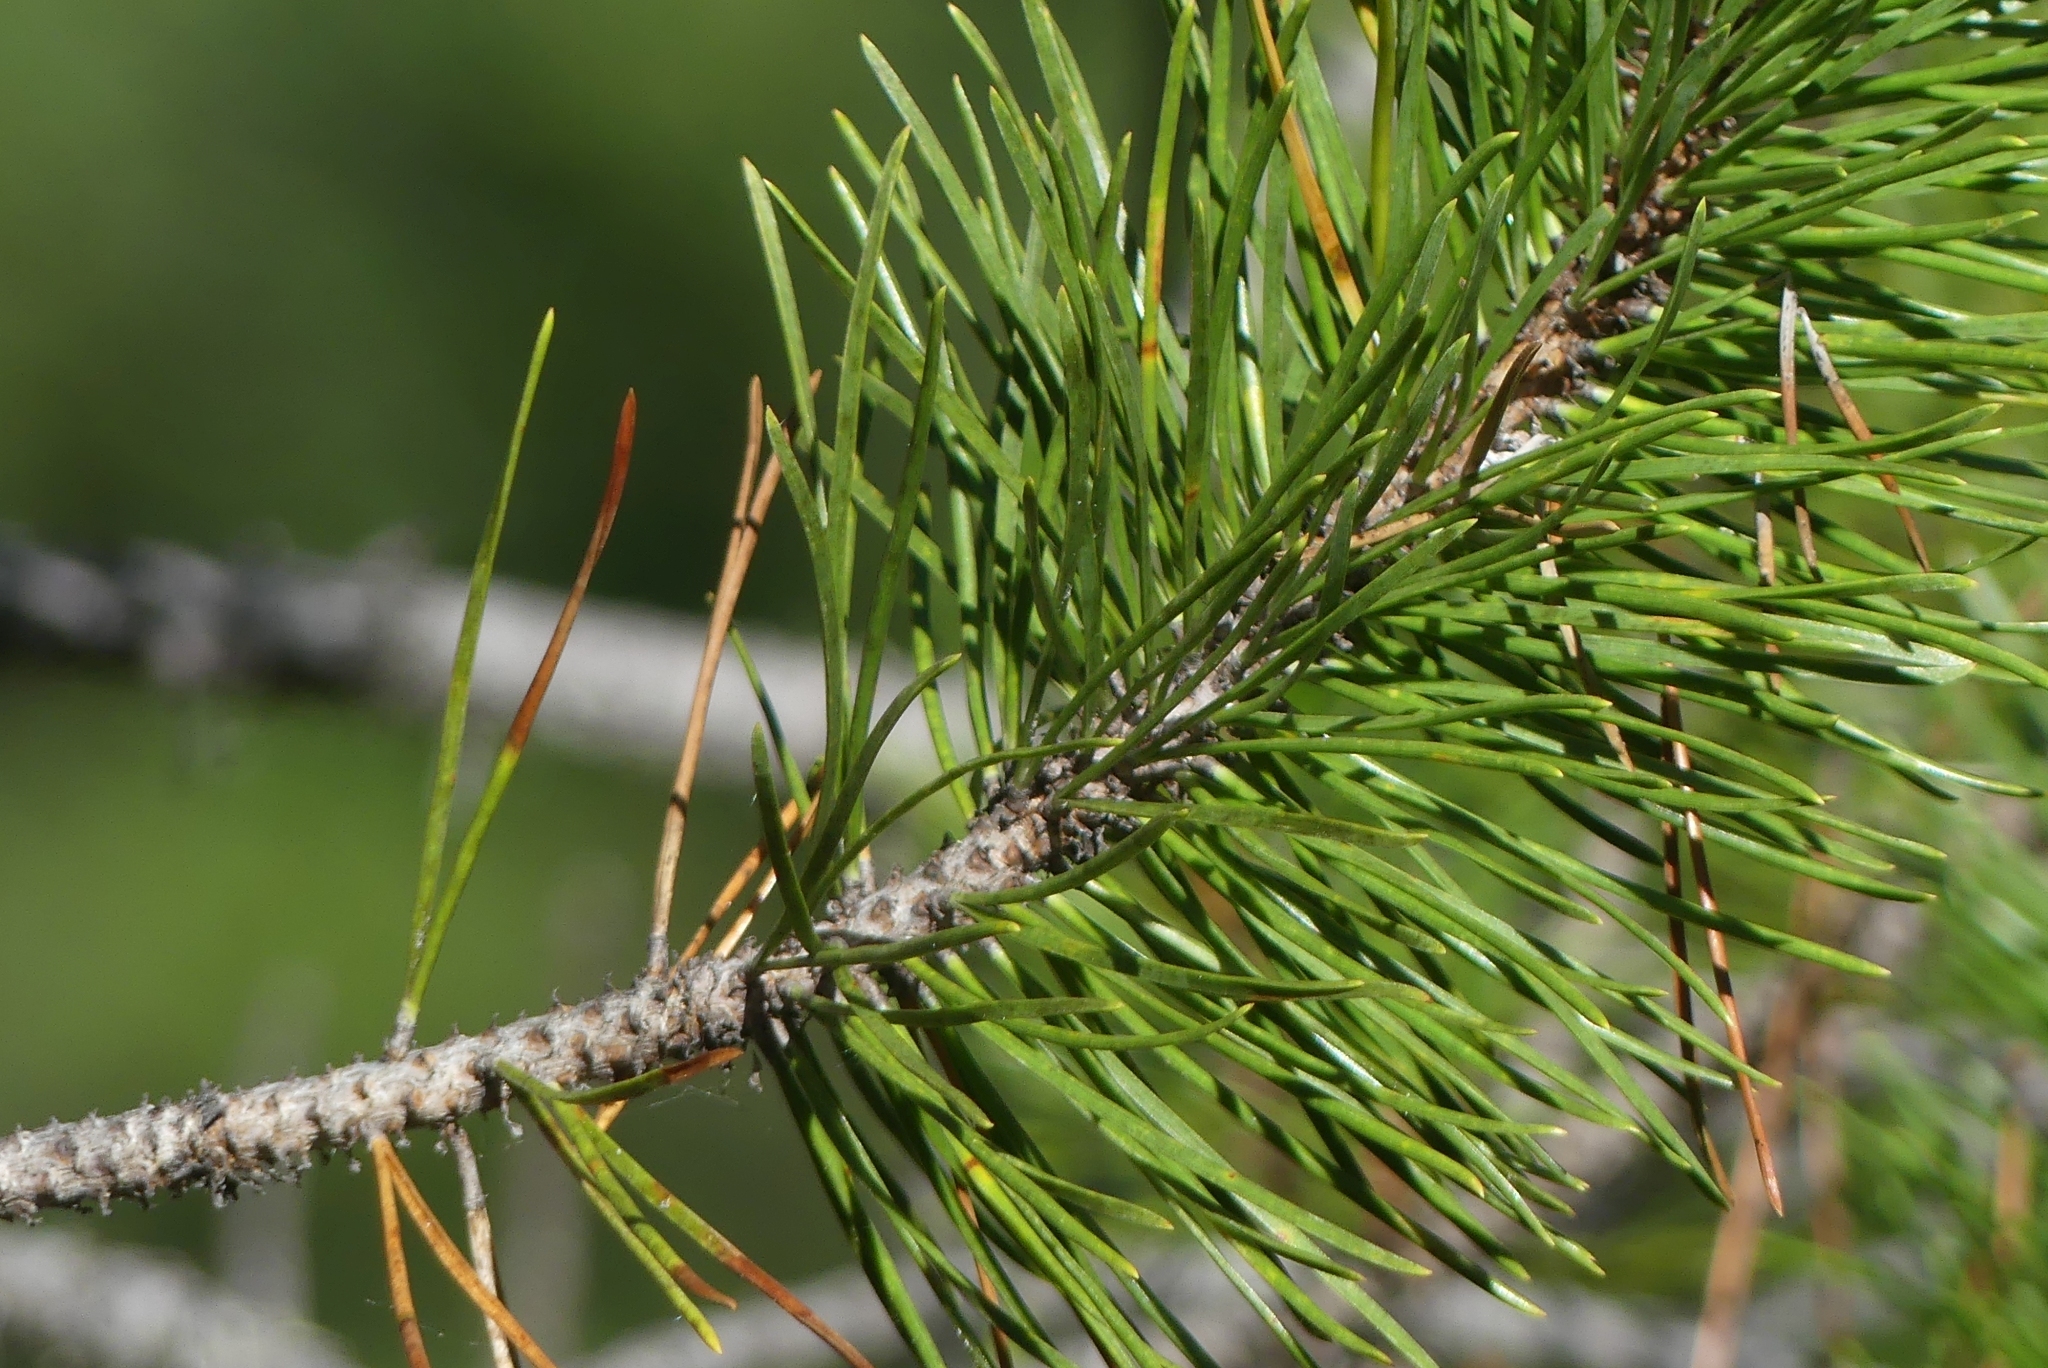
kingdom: Plantae
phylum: Tracheophyta
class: Pinopsida
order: Pinales
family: Pinaceae
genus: Pinus
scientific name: Pinus contorta
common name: Lodgepole pine
